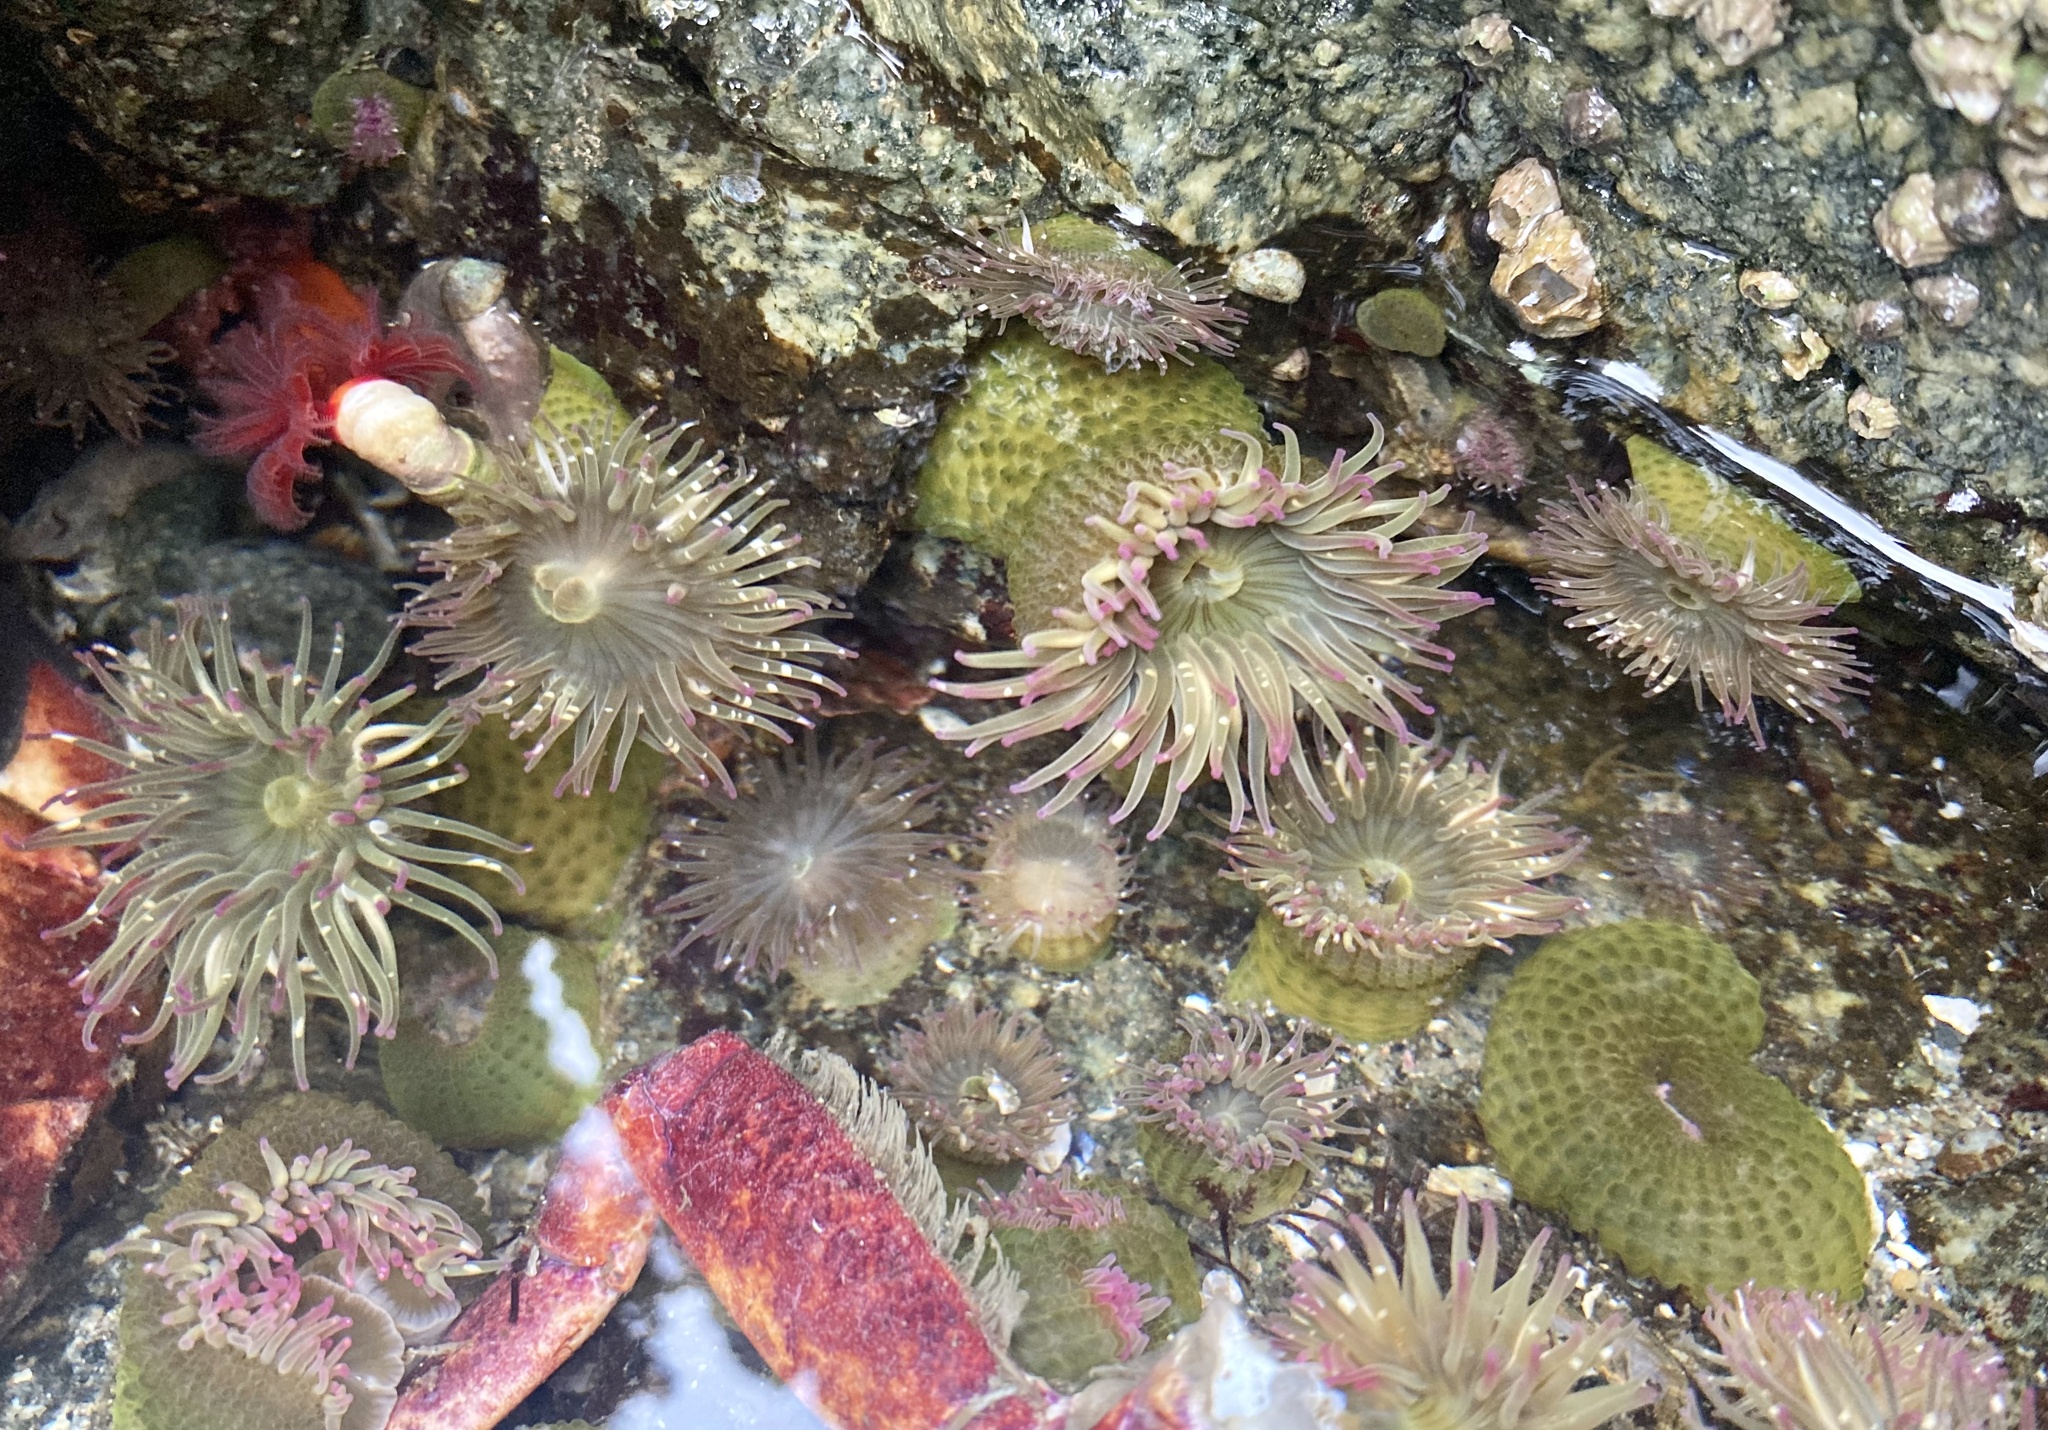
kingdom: Animalia
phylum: Cnidaria
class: Anthozoa
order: Actiniaria
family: Actiniidae
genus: Anthopleura
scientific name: Anthopleura elegantissima
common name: Clonal anemone
